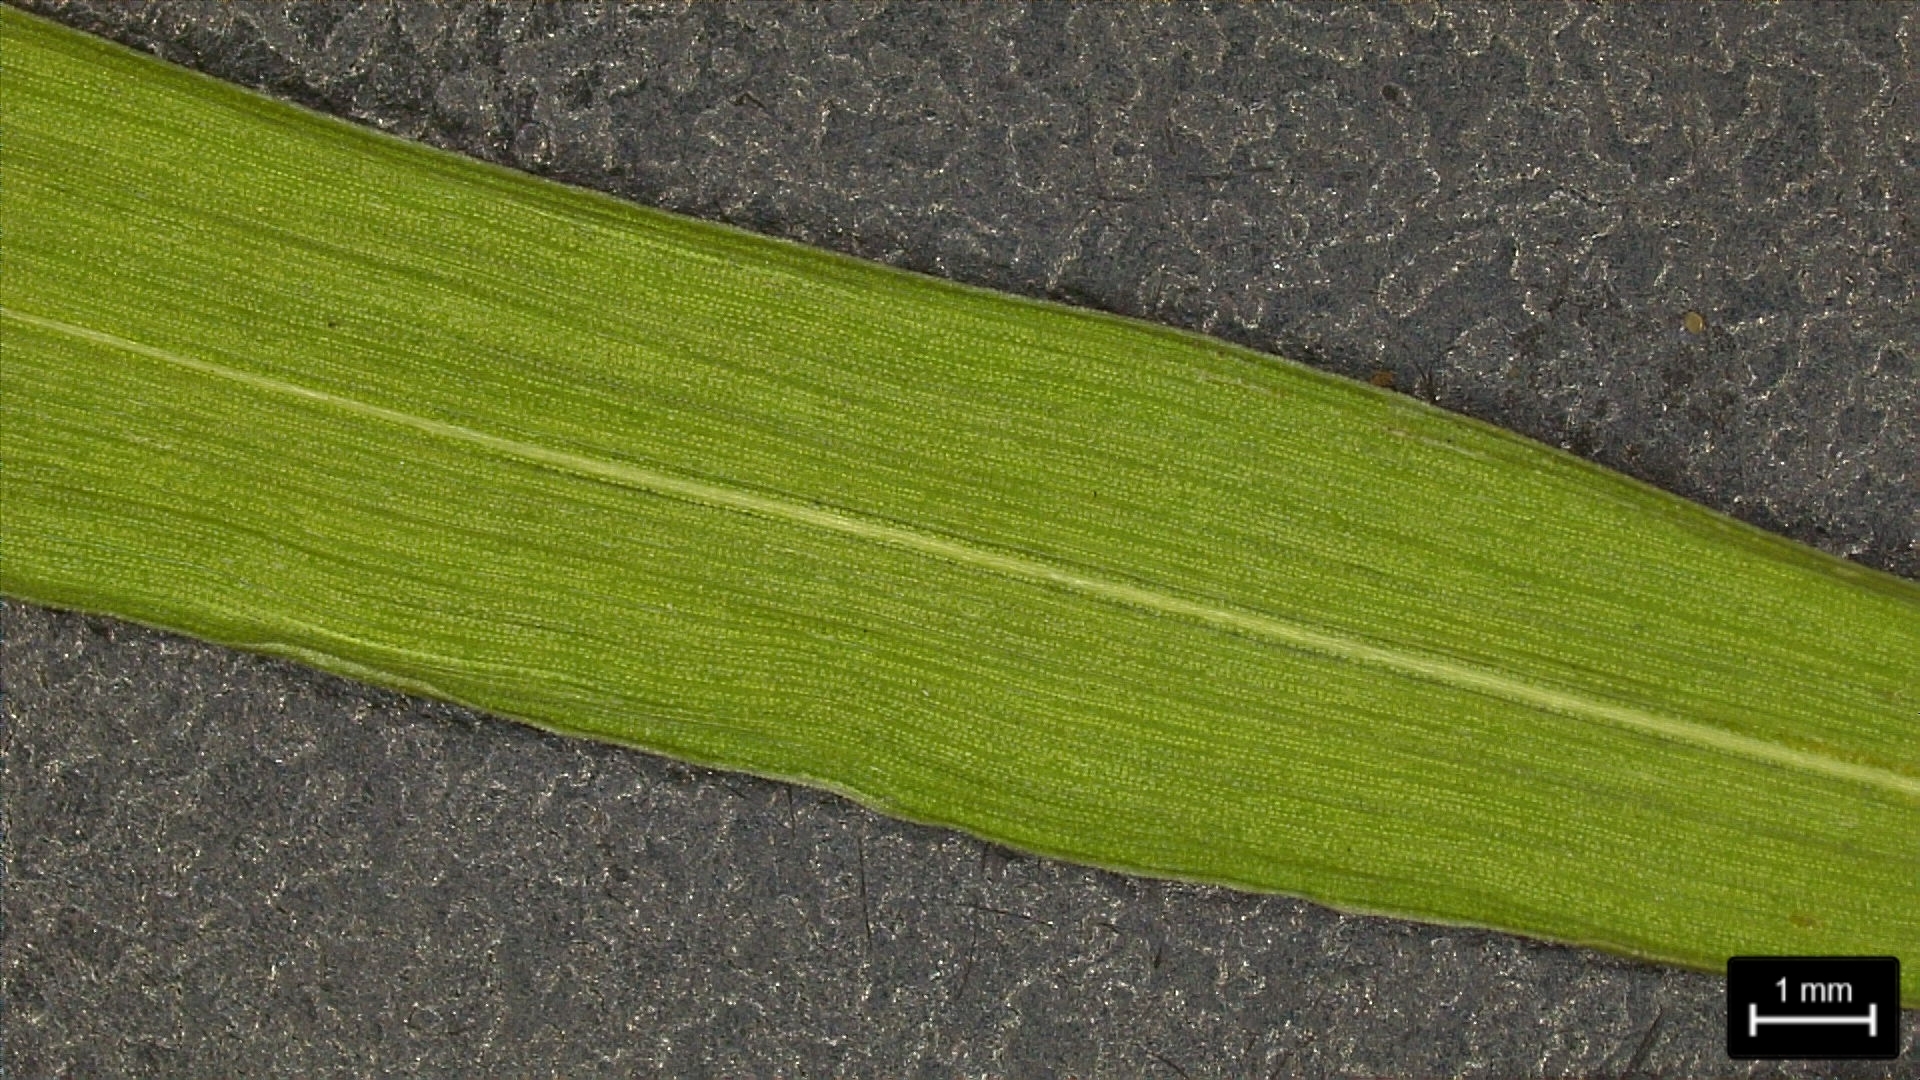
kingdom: Plantae
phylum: Tracheophyta
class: Liliopsida
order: Poales
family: Poaceae
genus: Dichanthelium
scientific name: Dichanthelium scribnerianum
